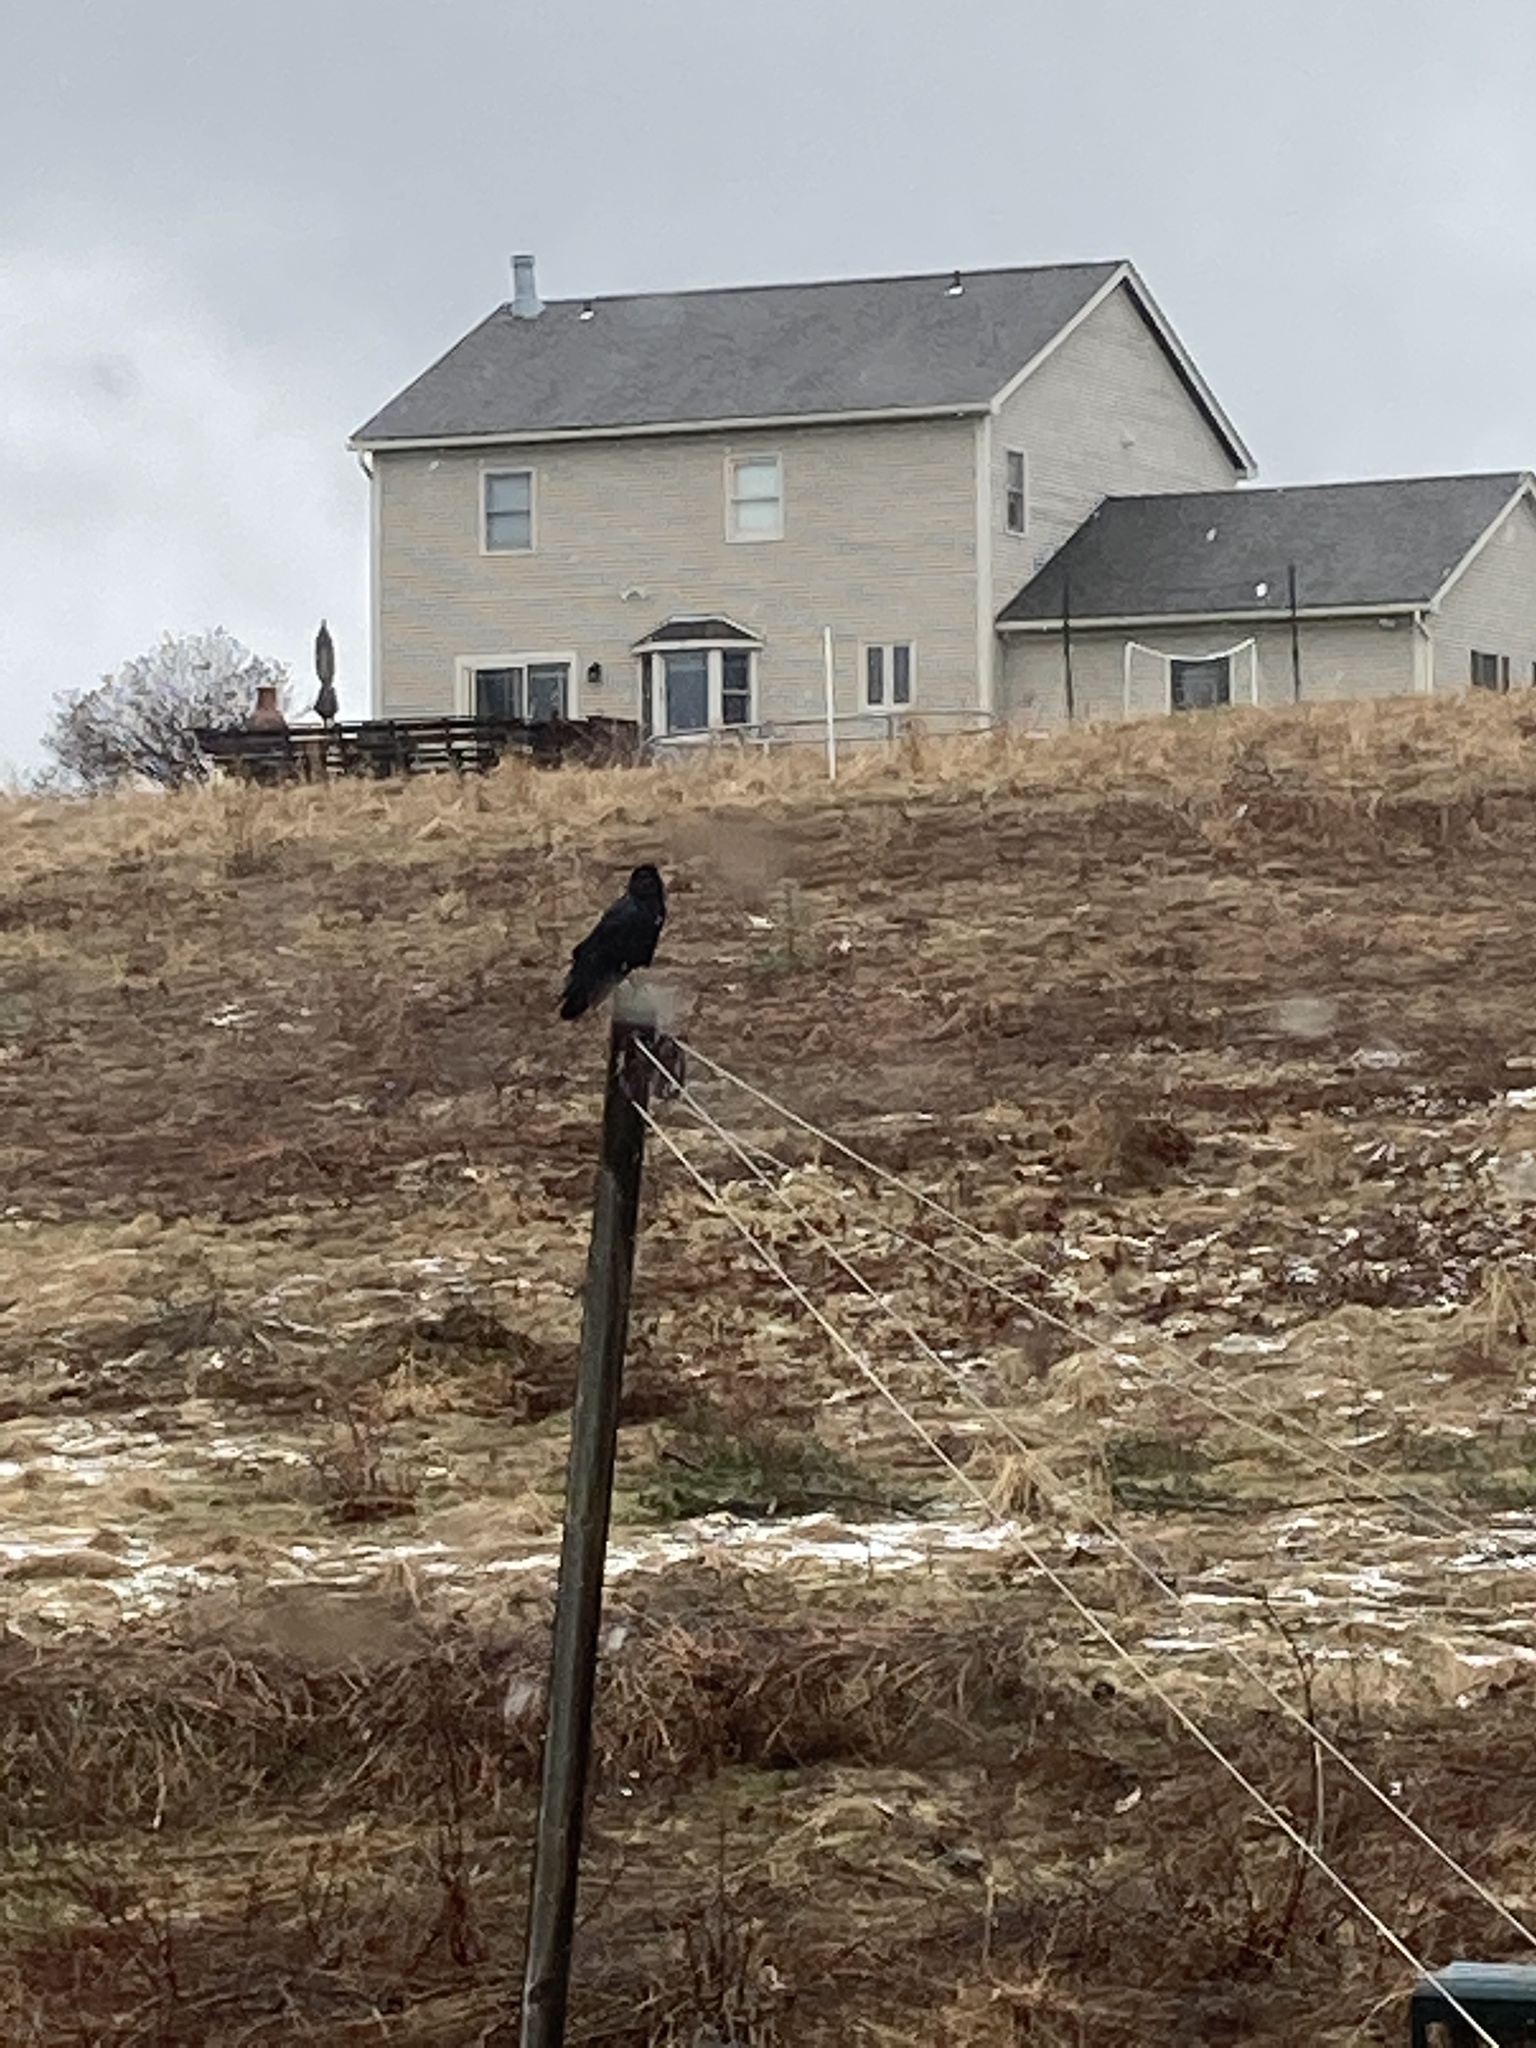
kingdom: Animalia
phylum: Chordata
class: Aves
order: Passeriformes
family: Corvidae
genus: Corvus
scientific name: Corvus brachyrhynchos
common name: American crow
